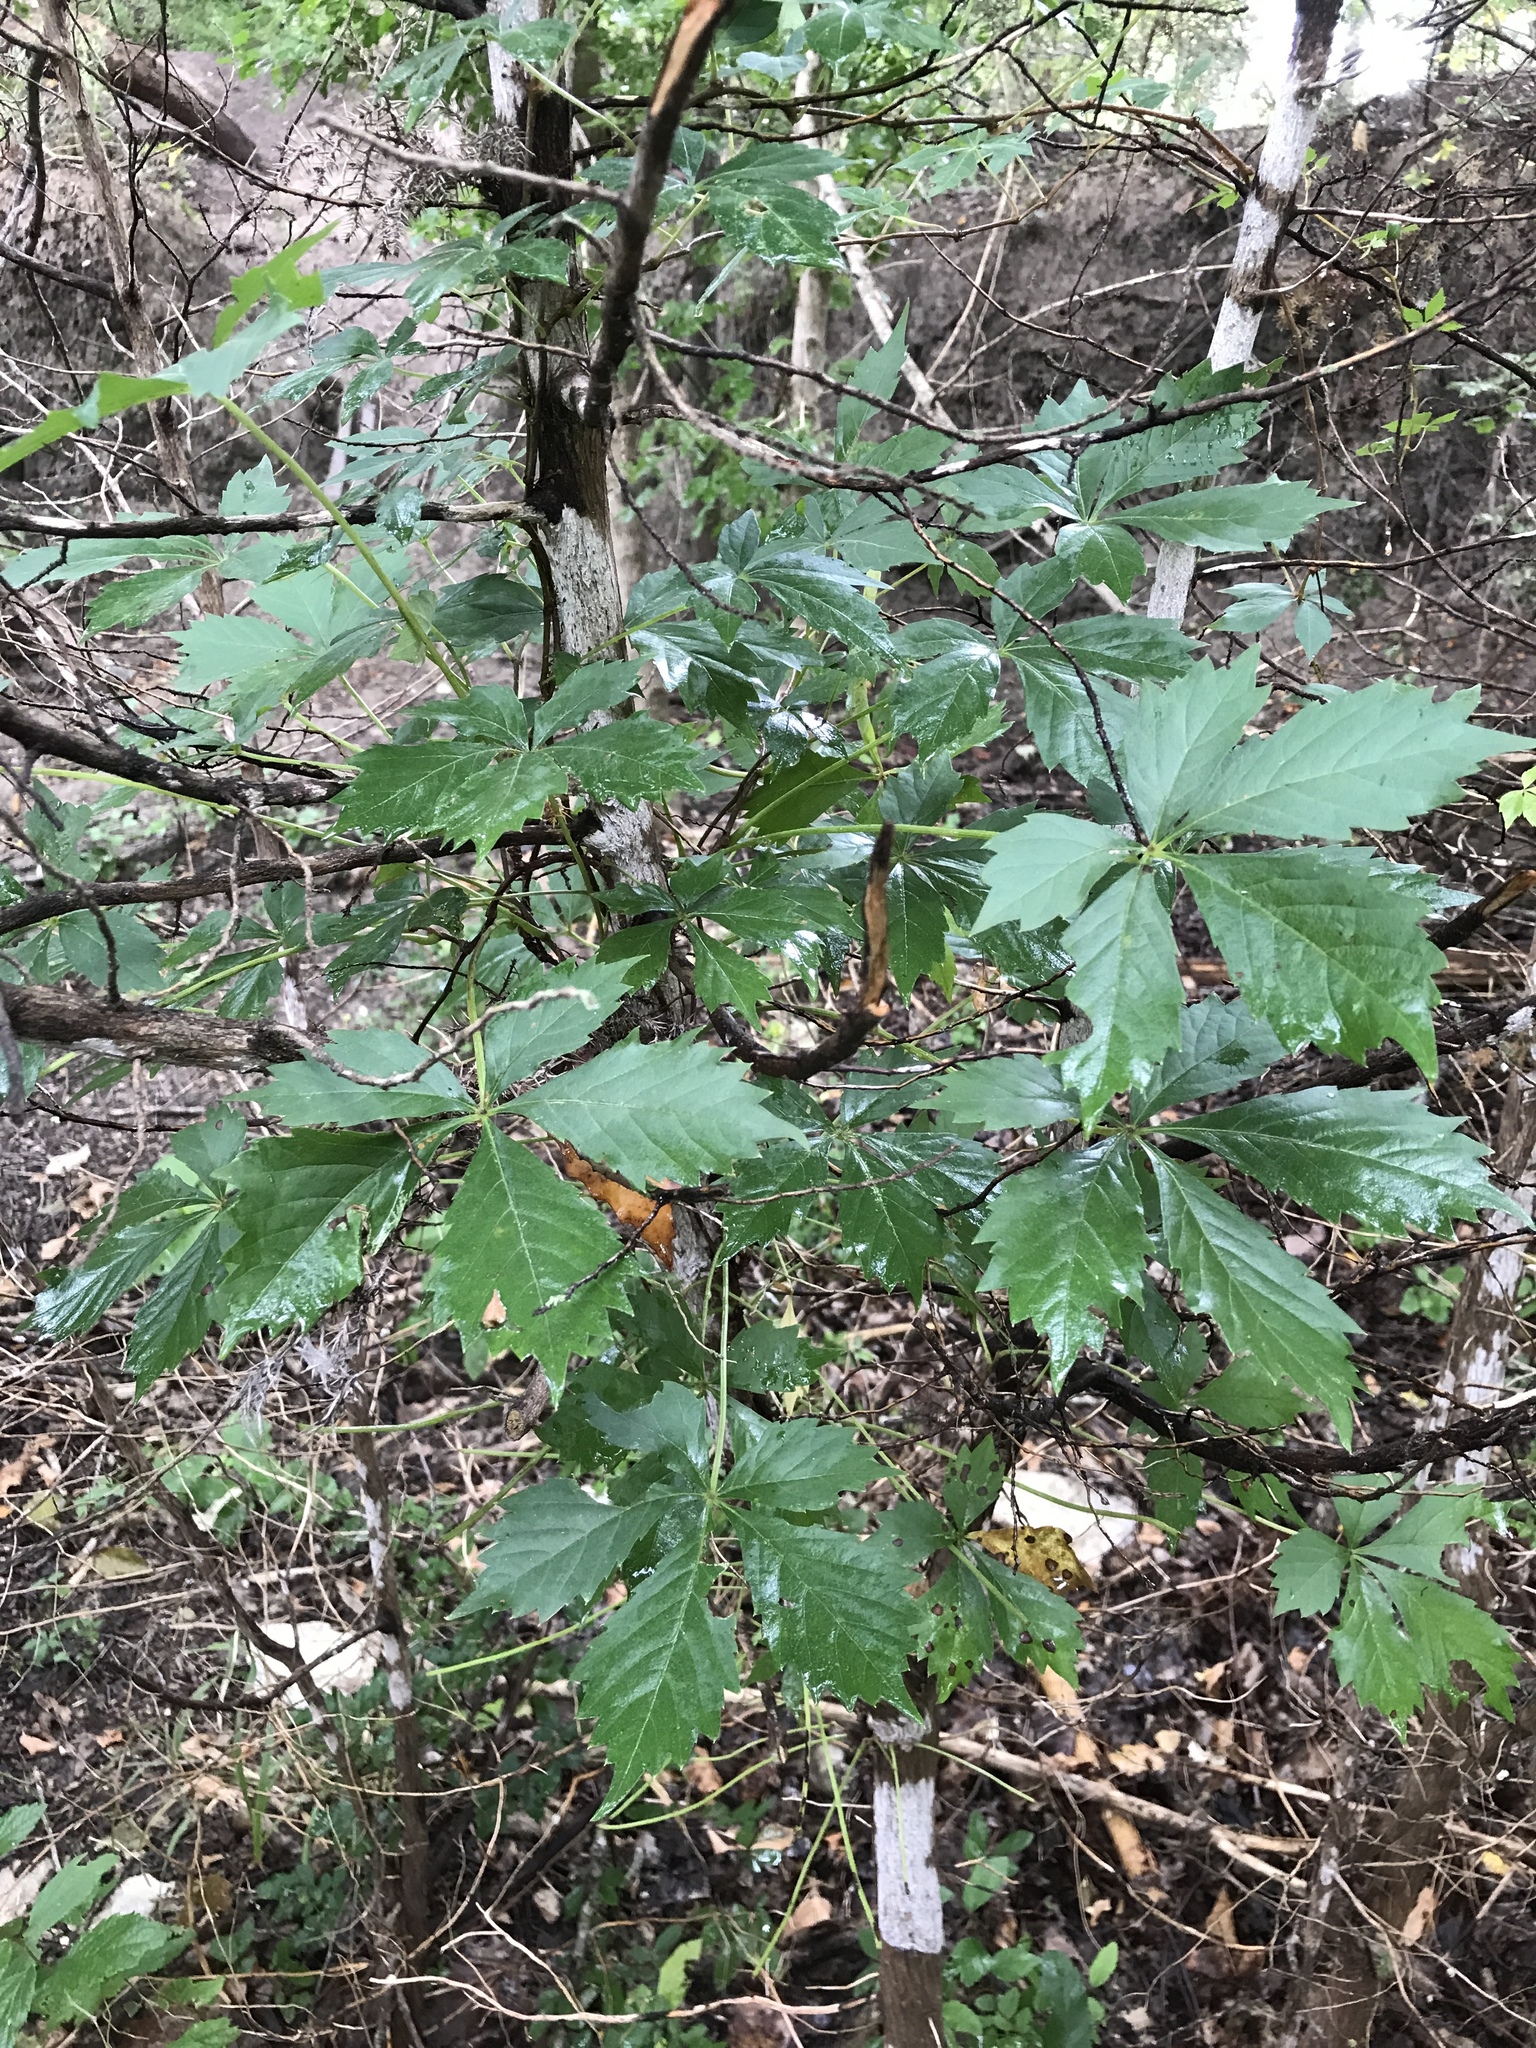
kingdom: Plantae
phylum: Tracheophyta
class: Magnoliopsida
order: Vitales
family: Vitaceae
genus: Parthenocissus
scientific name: Parthenocissus quinquefolia
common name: Virginia-creeper
